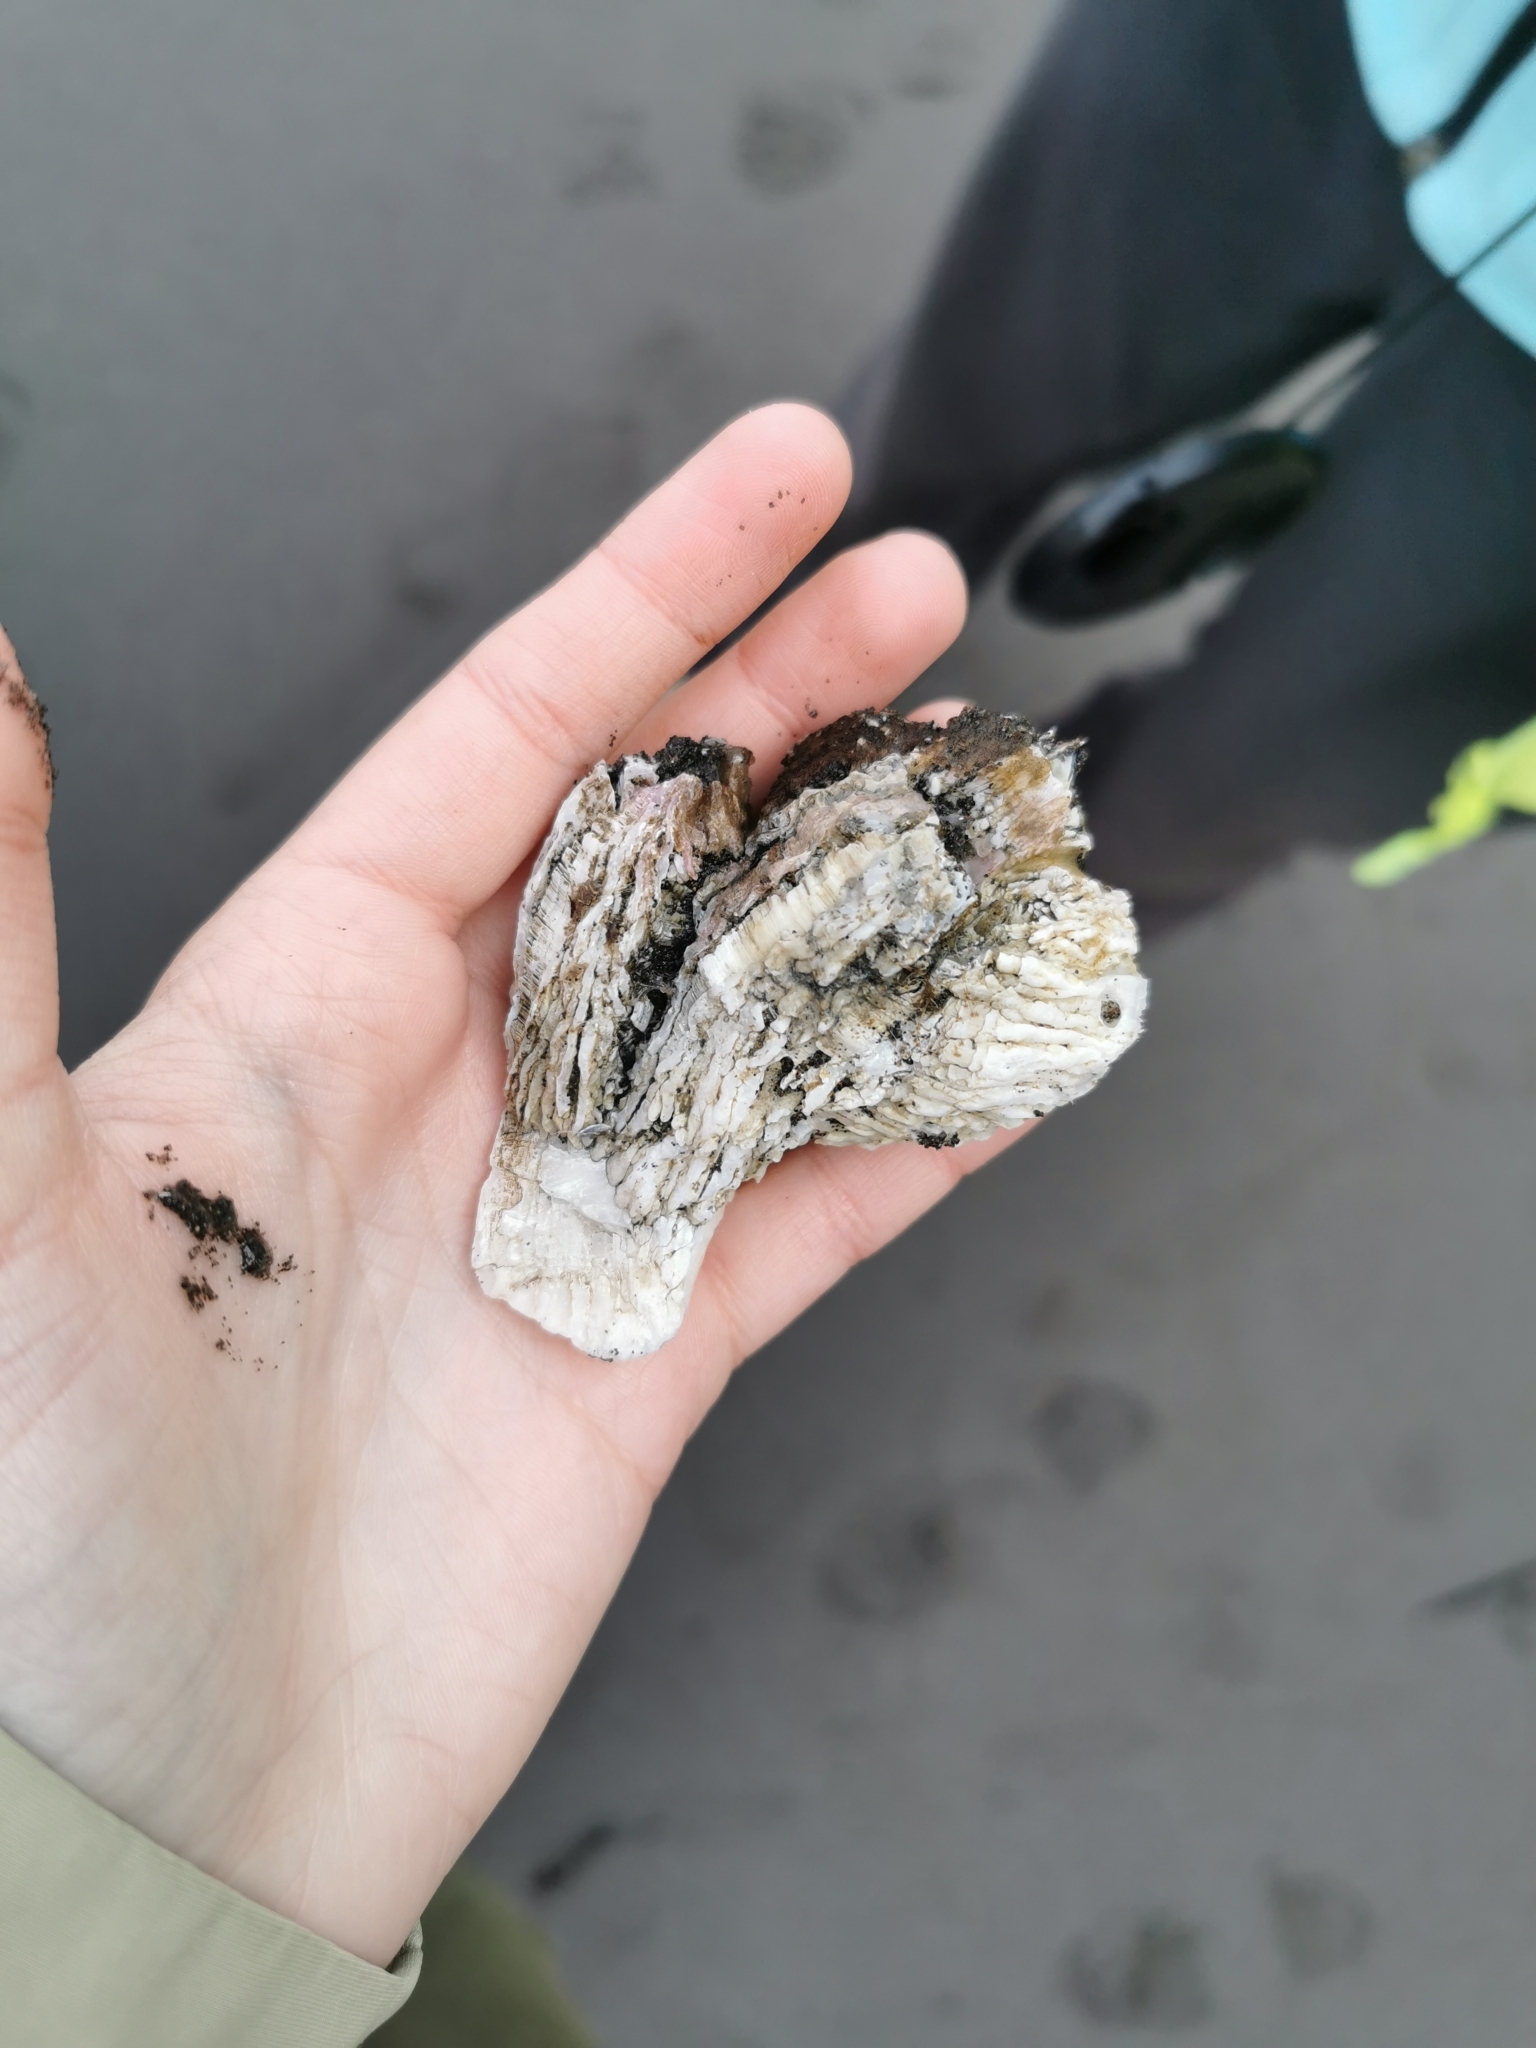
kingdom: Animalia
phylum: Arthropoda
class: Maxillopoda
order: Sessilia
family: Archaeobalanidae
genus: Semibalanus
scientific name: Semibalanus cariosus
